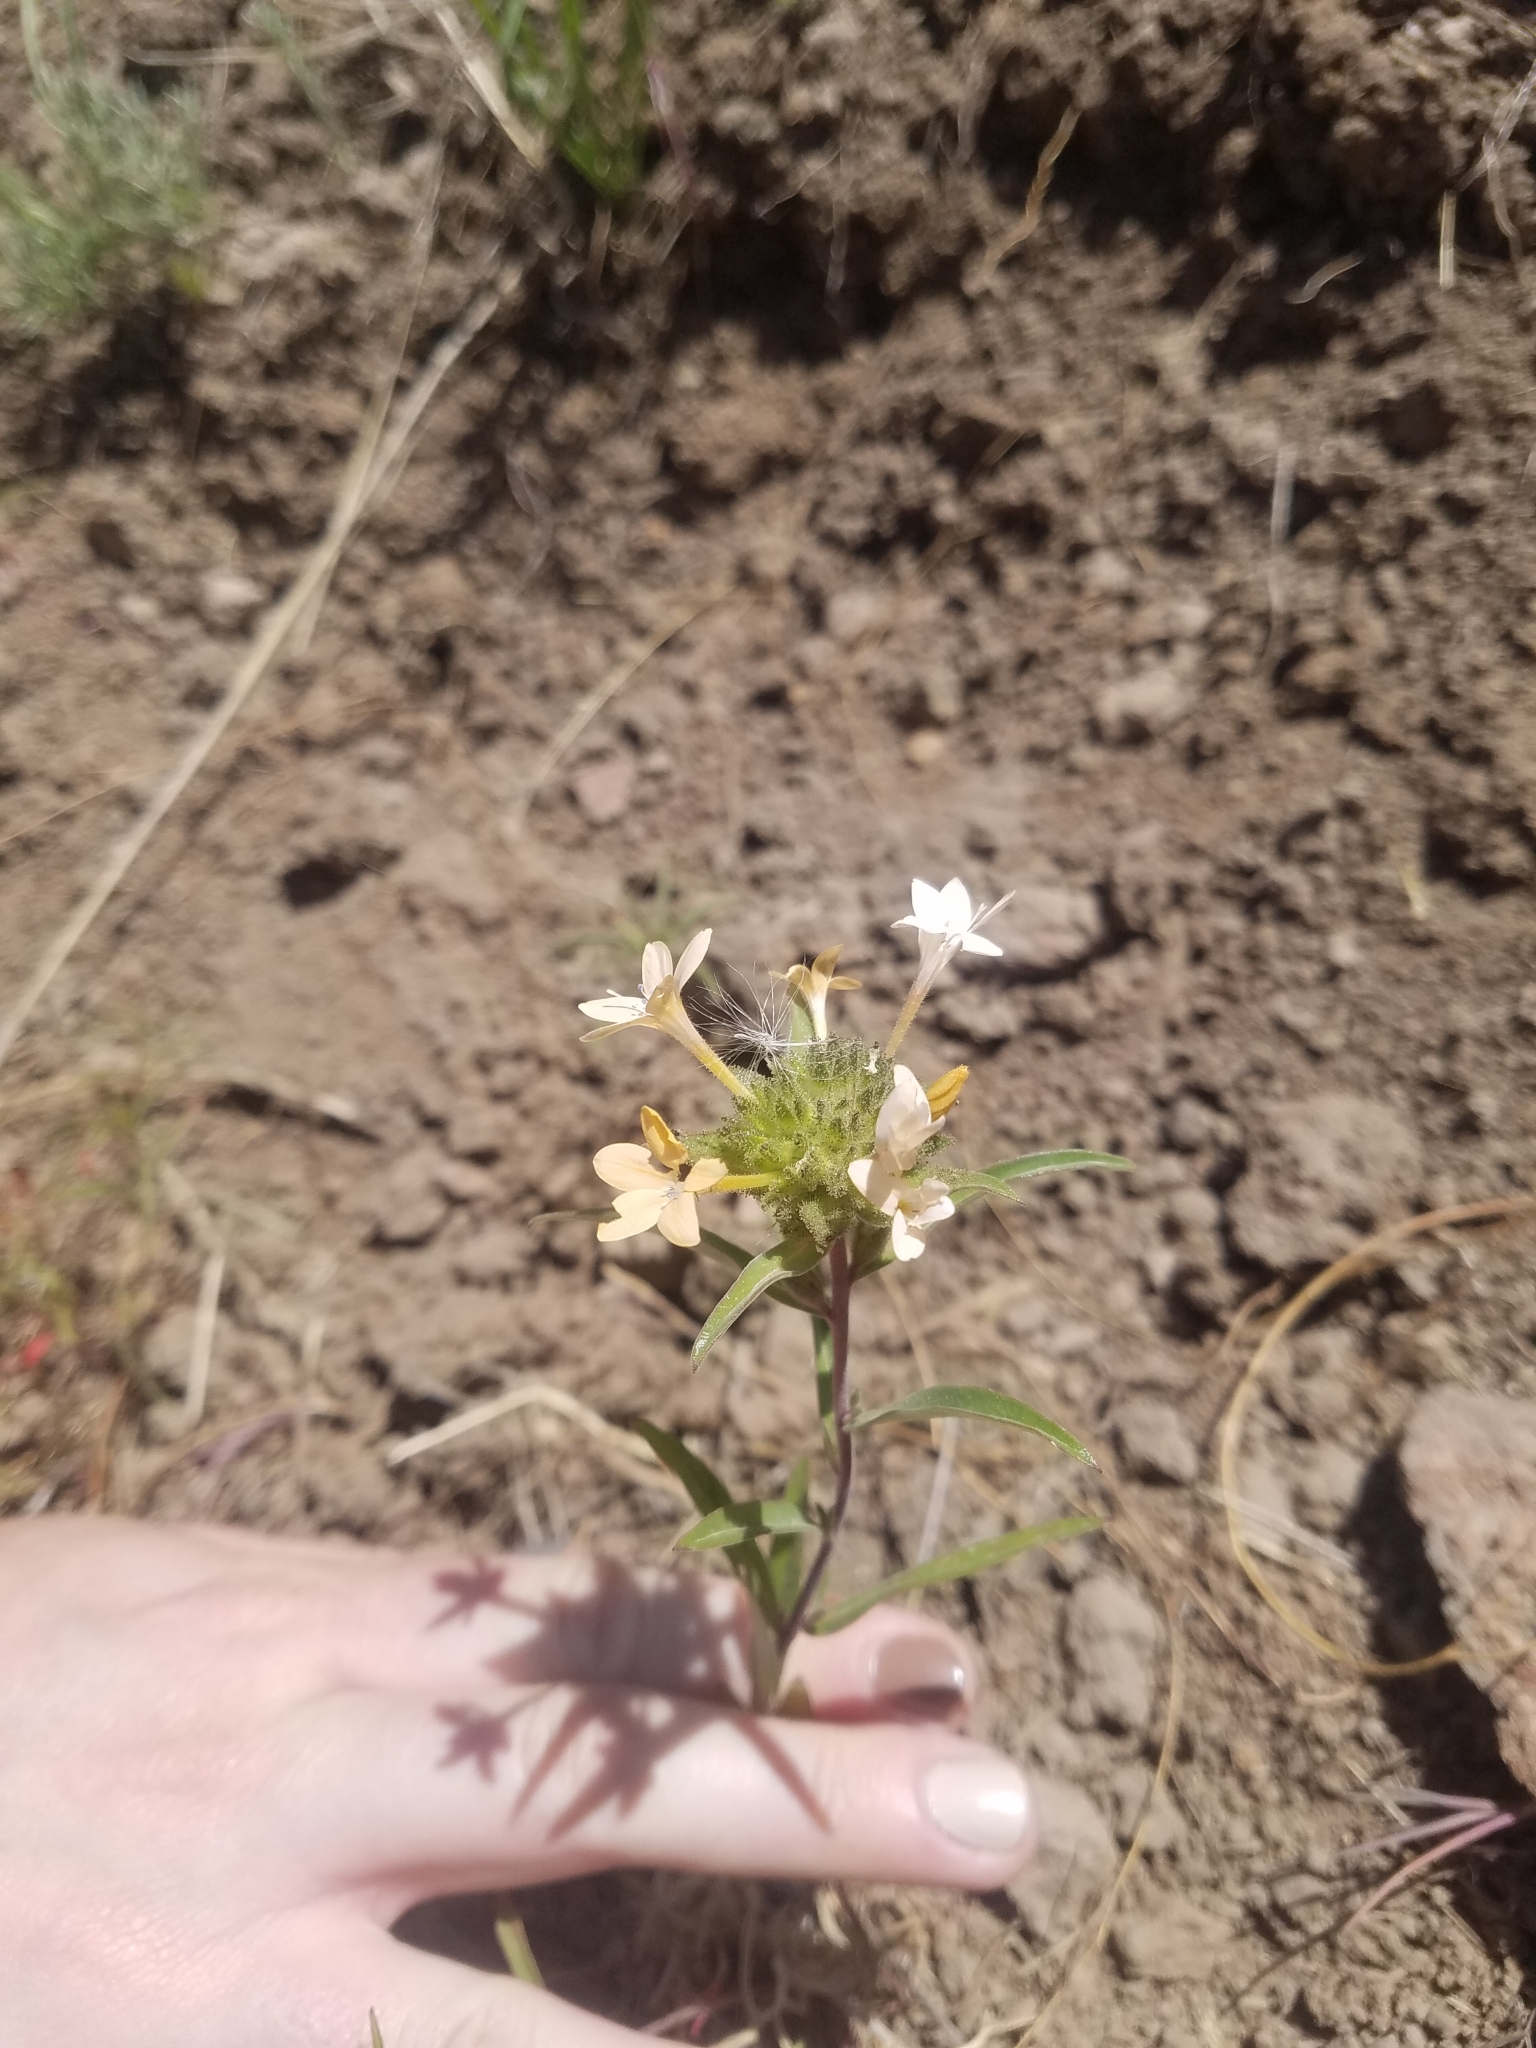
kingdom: Plantae
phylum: Tracheophyta
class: Magnoliopsida
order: Ericales
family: Polemoniaceae
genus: Collomia
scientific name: Collomia grandiflora
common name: California strawflower
